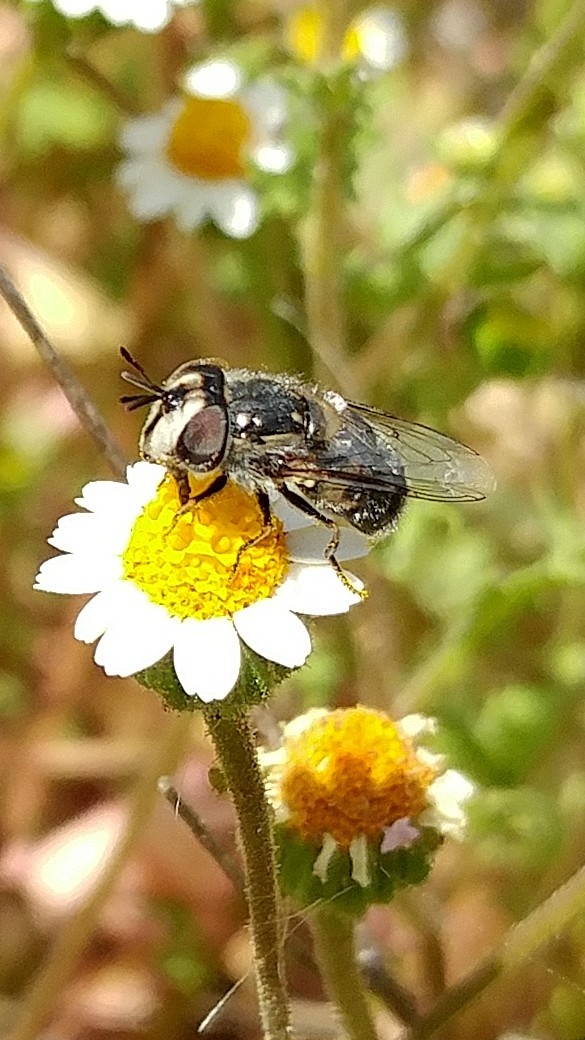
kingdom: Animalia
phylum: Arthropoda
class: Insecta
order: Diptera
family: Syrphidae
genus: Copestylum
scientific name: Copestylum lentum
